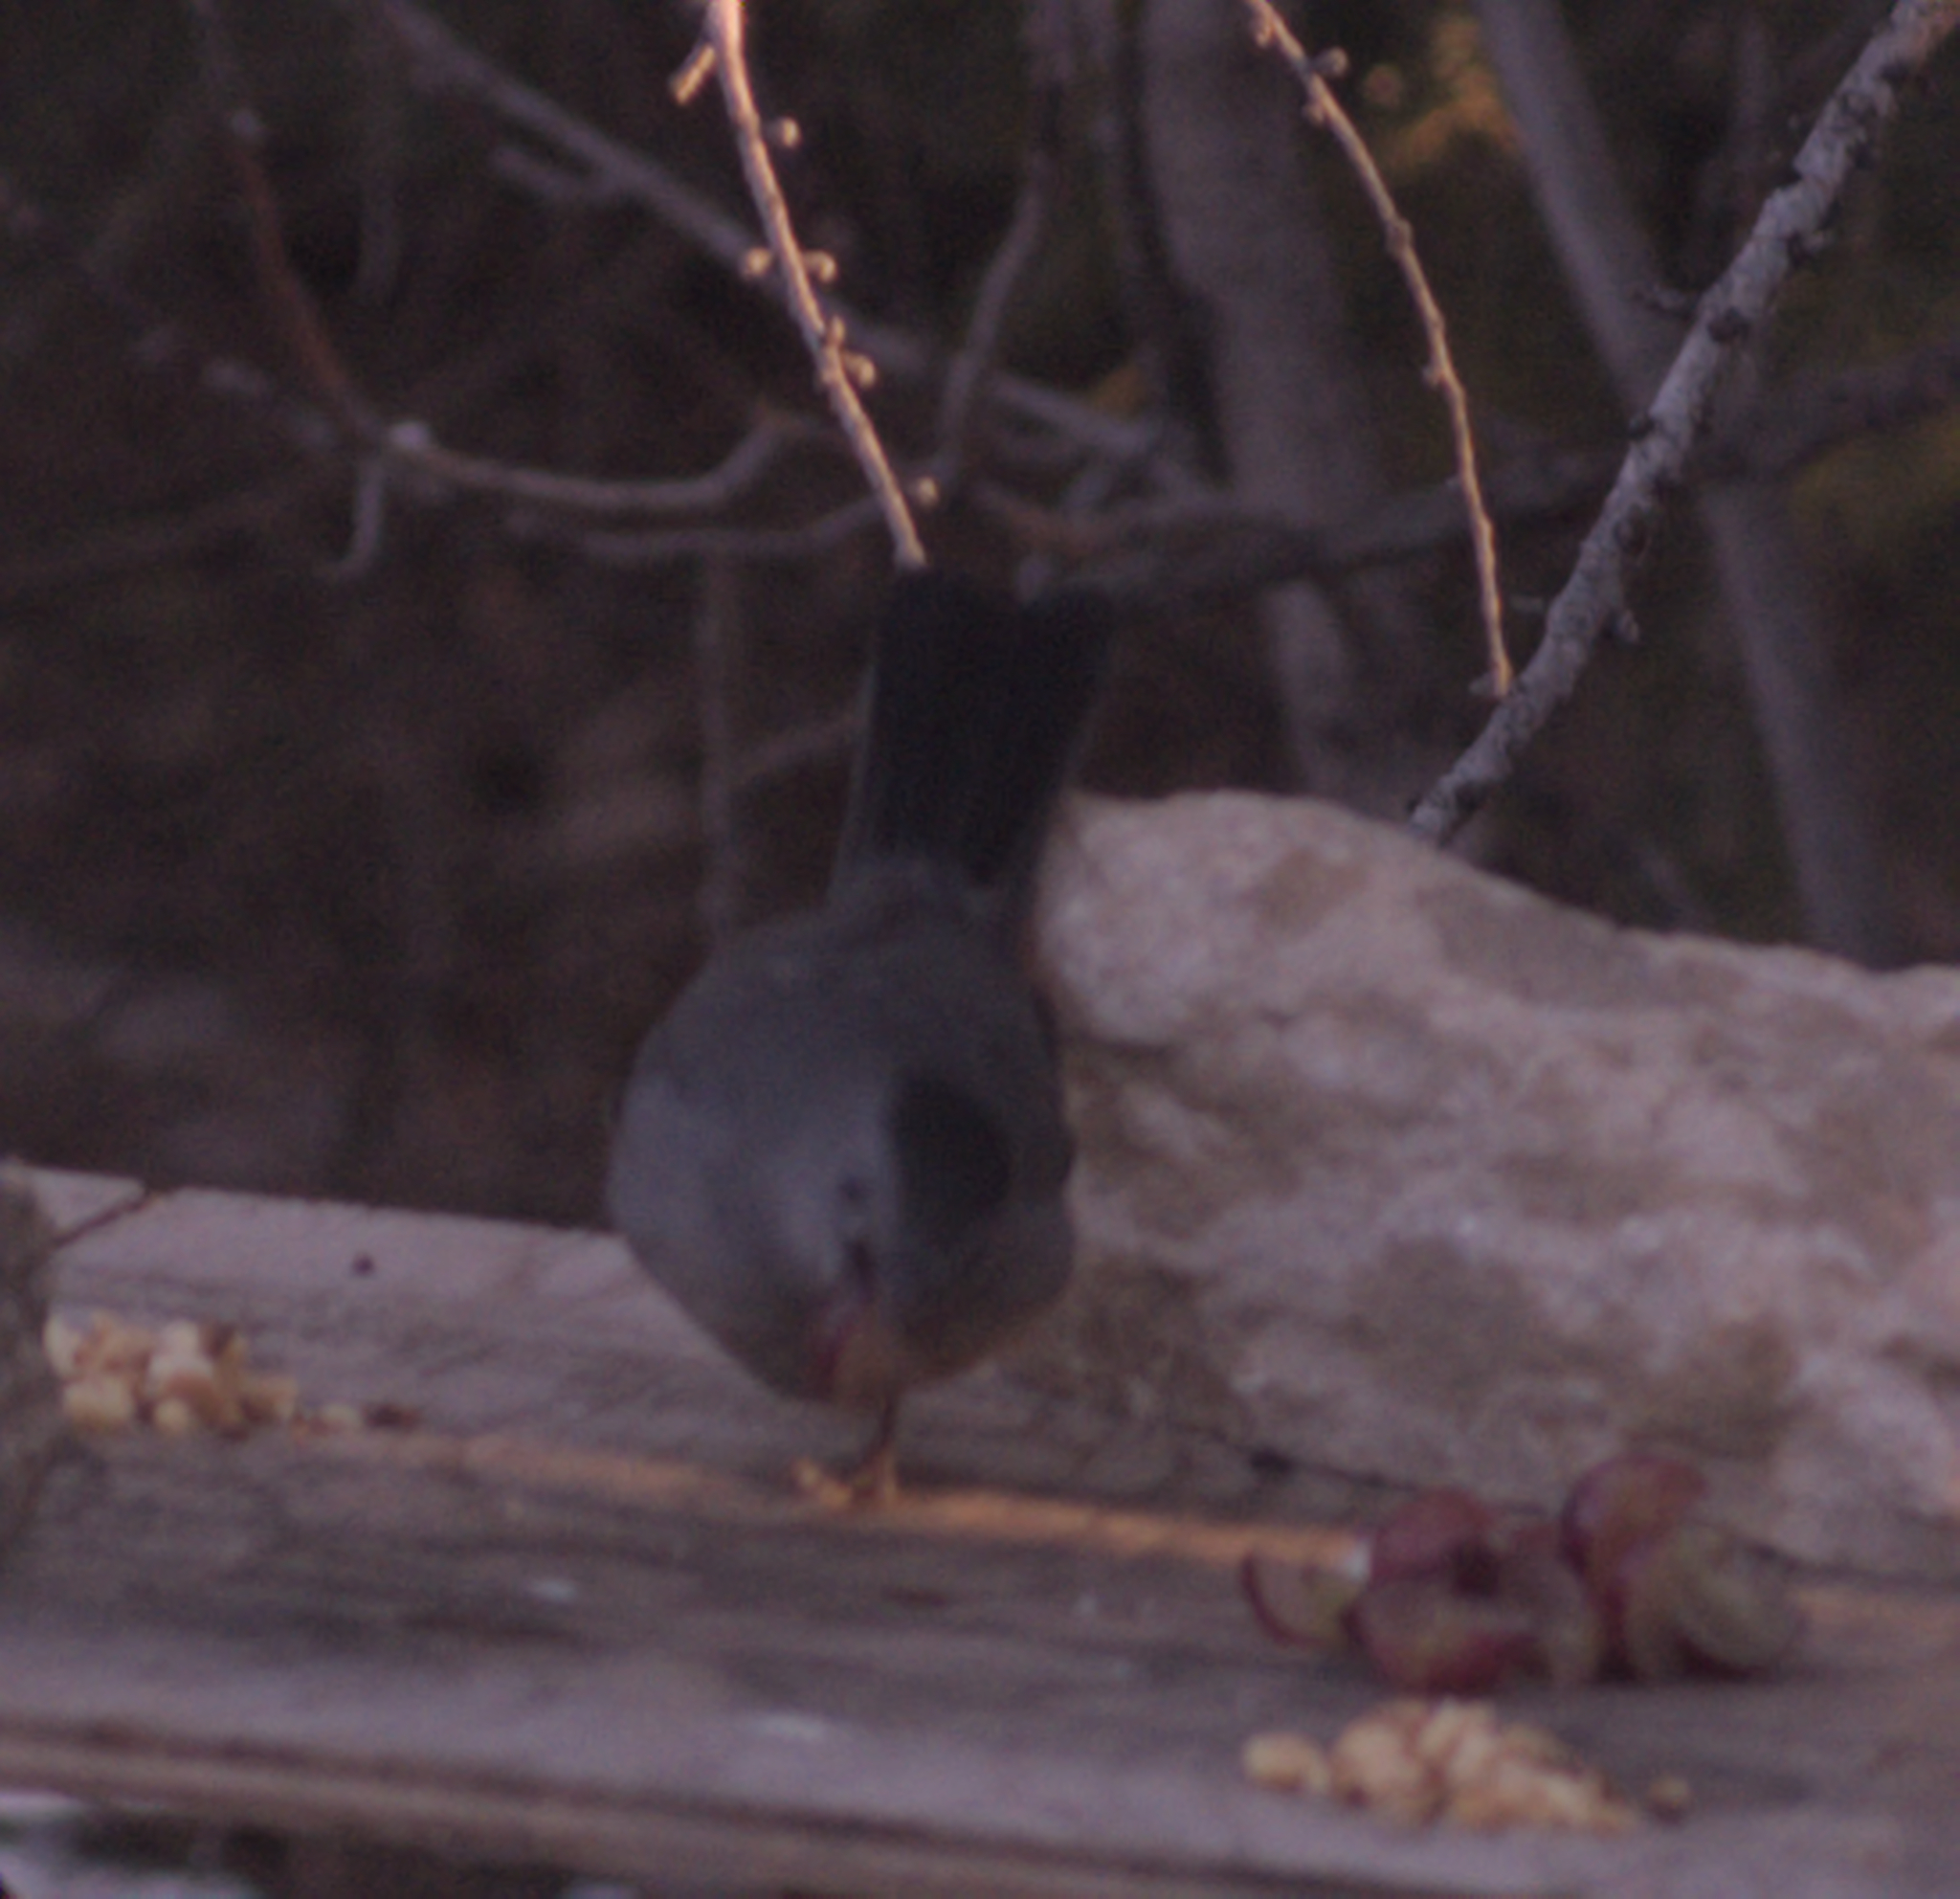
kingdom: Animalia
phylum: Chordata
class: Aves
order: Passeriformes
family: Mimidae
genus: Dumetella
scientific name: Dumetella carolinensis
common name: Gray catbird
